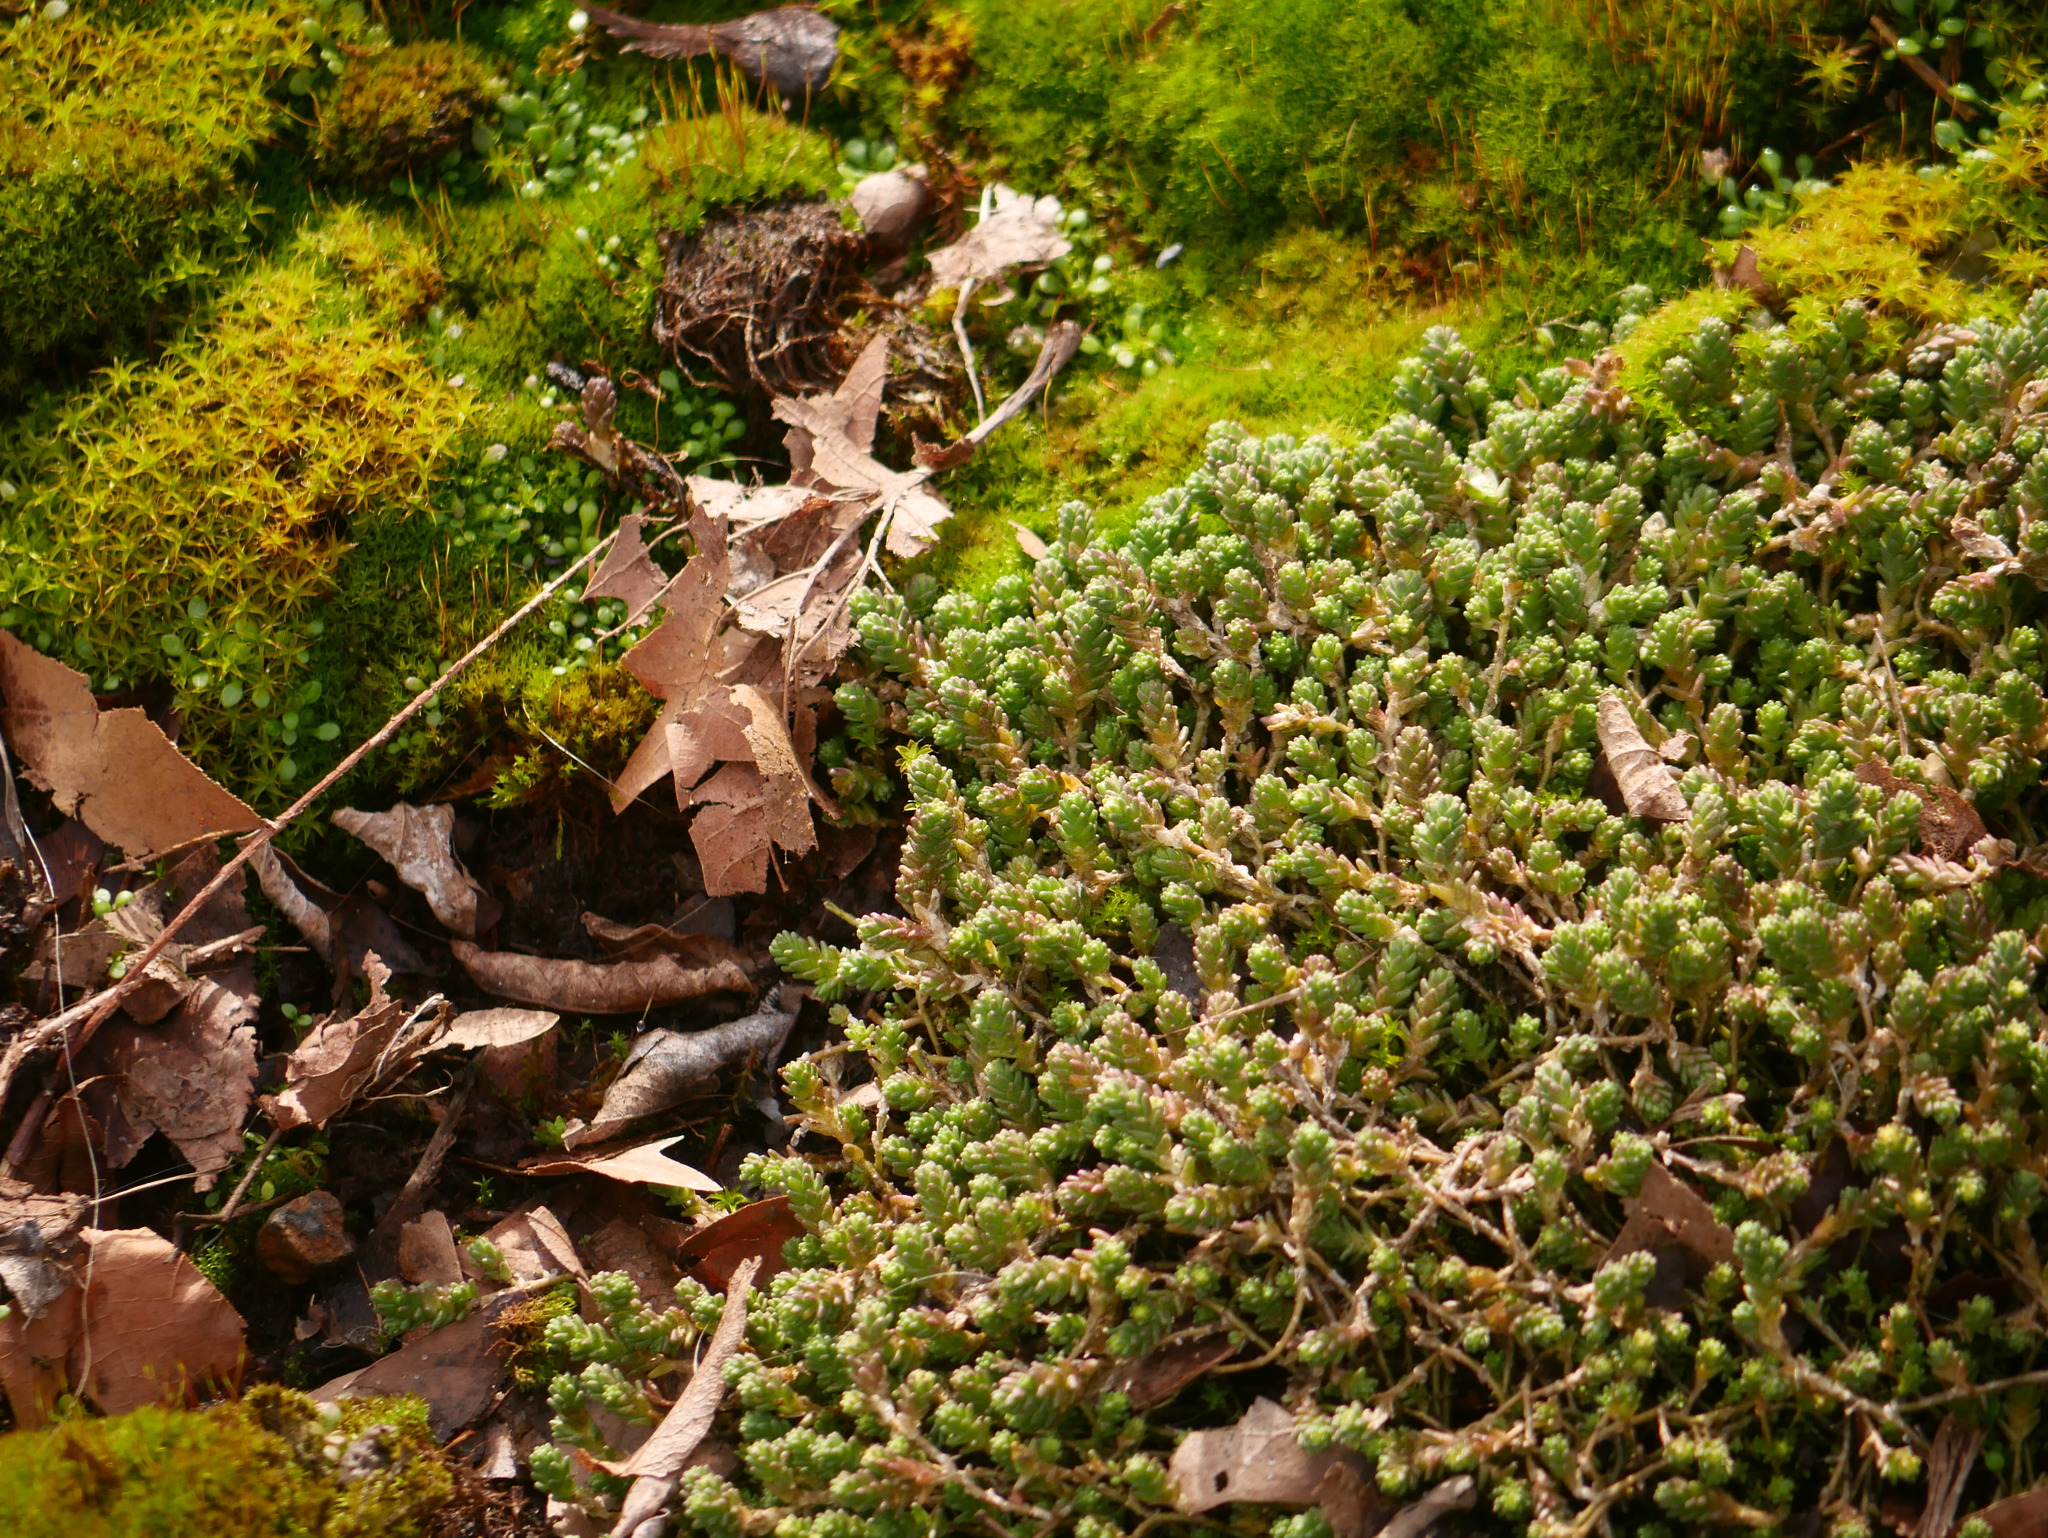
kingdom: Plantae
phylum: Tracheophyta
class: Magnoliopsida
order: Saxifragales
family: Crassulaceae
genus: Sedum
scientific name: Sedum acre
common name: Biting stonecrop
